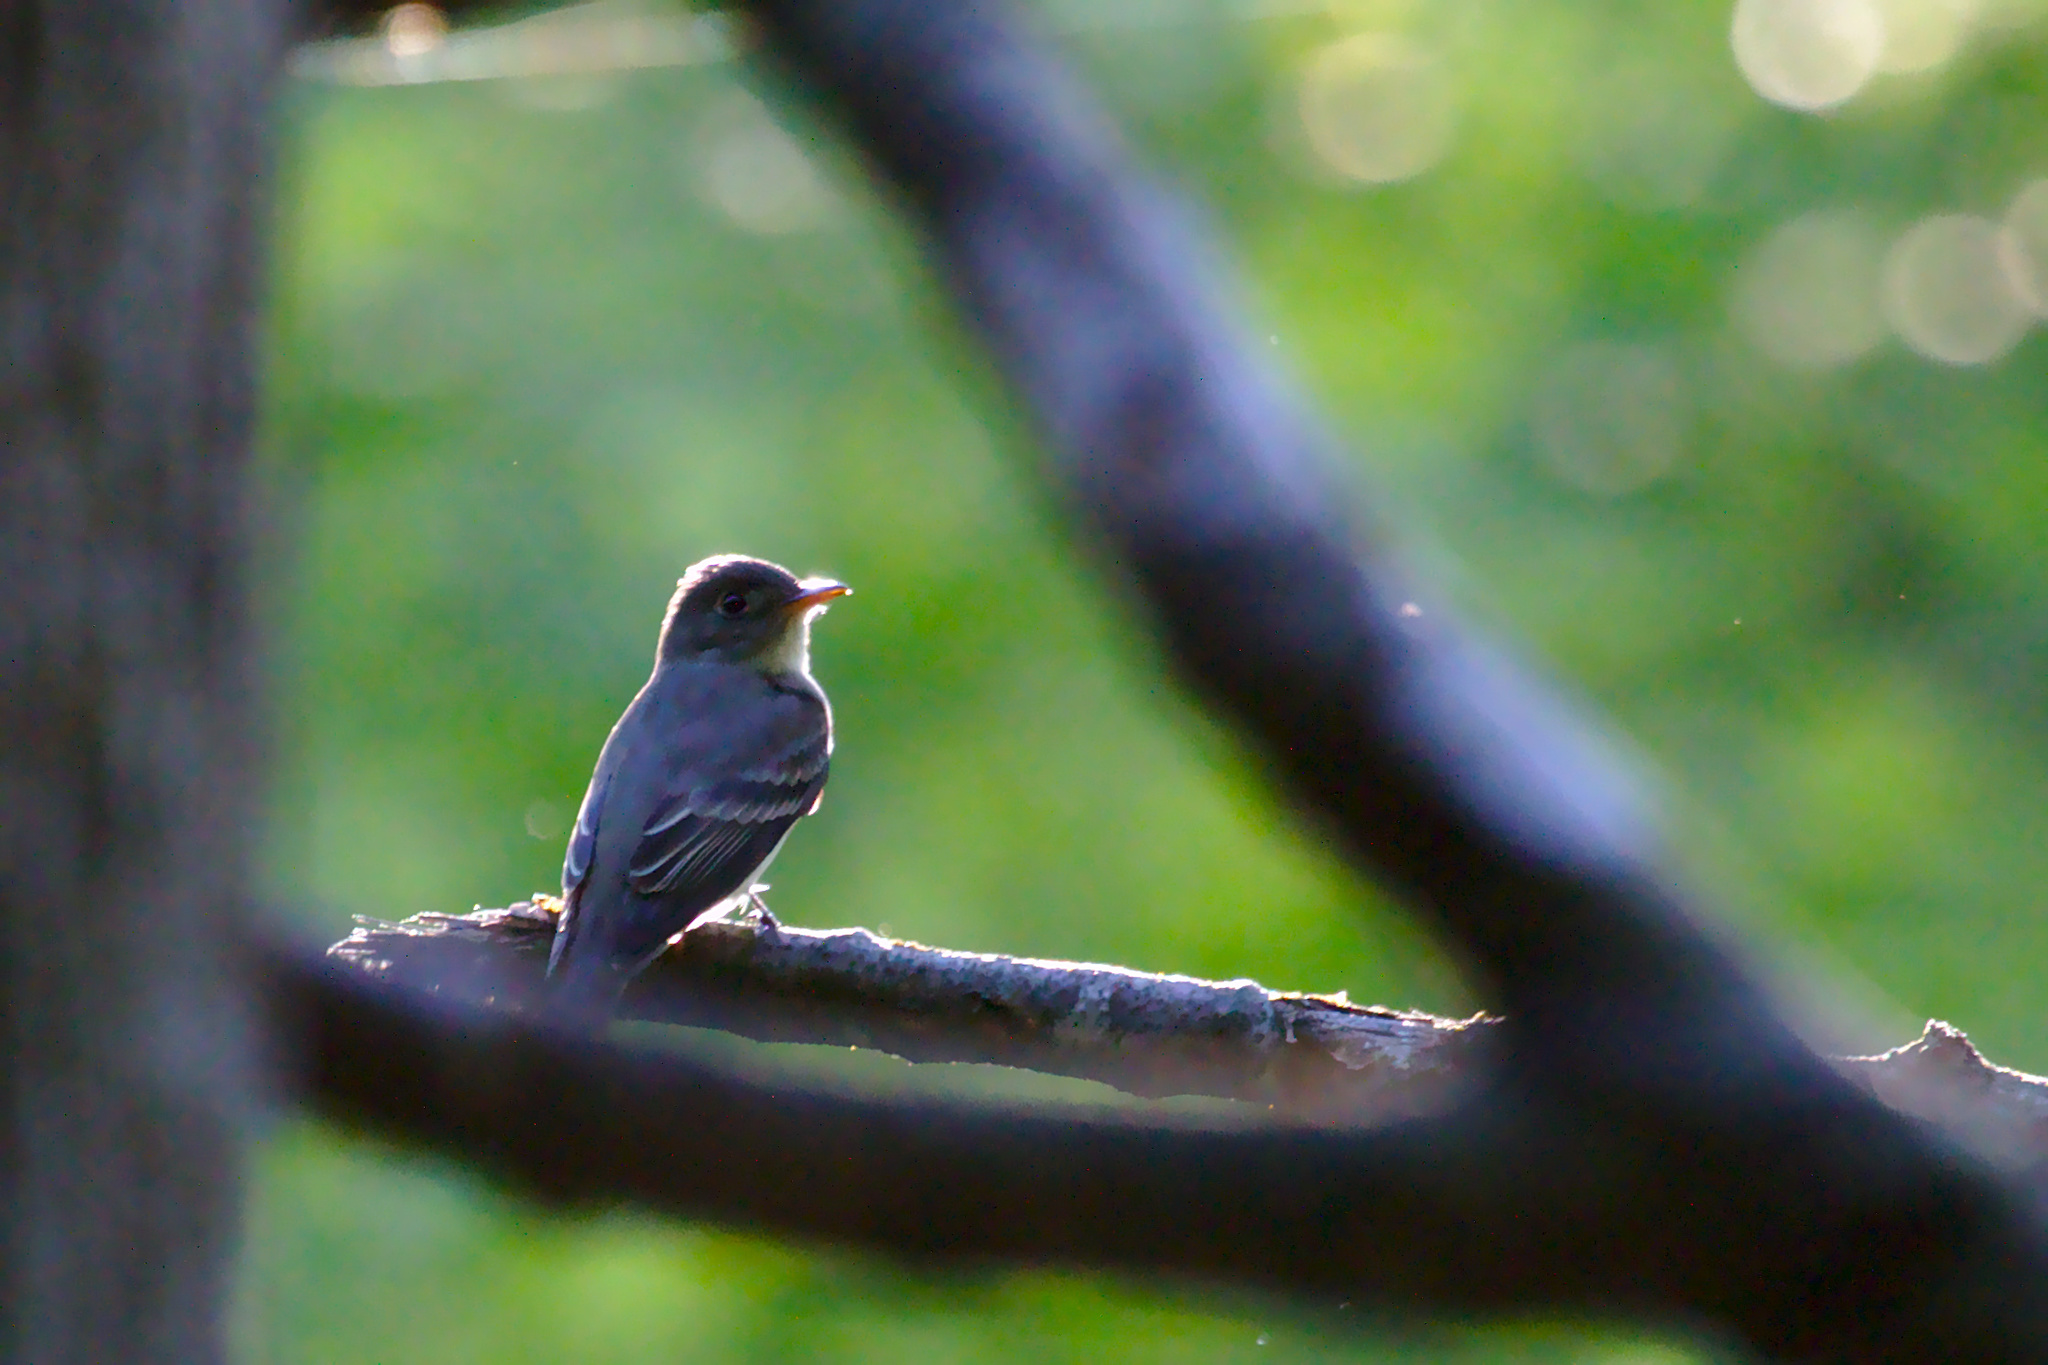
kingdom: Animalia
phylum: Chordata
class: Aves
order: Passeriformes
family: Tyrannidae
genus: Contopus
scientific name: Contopus virens
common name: Eastern wood-pewee
